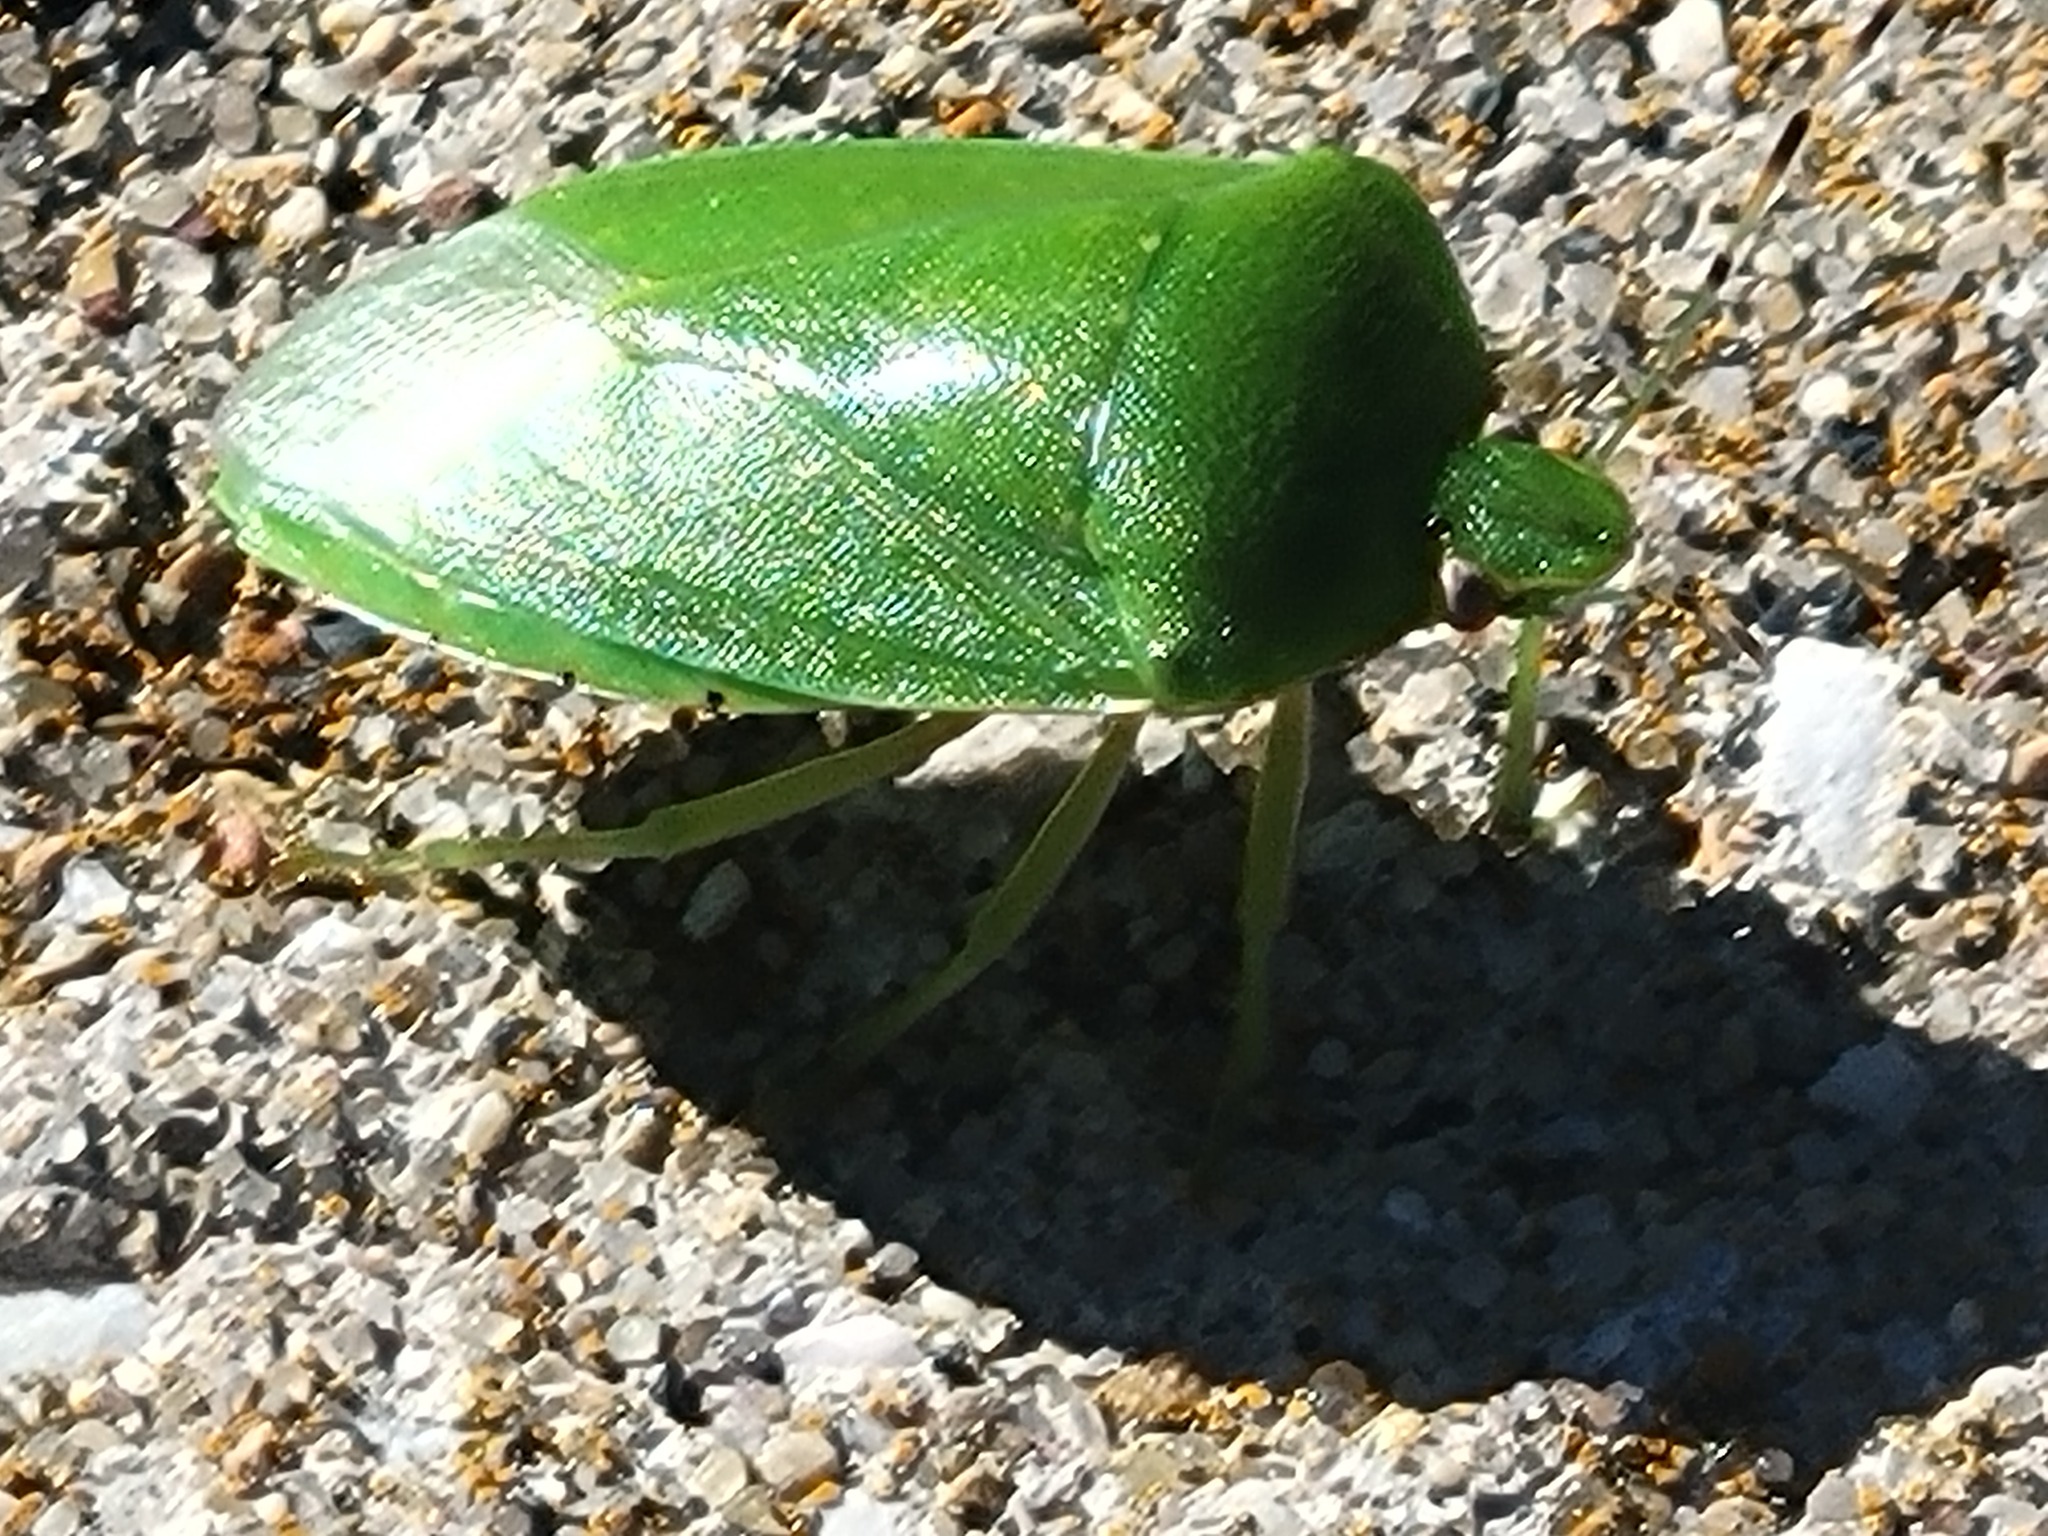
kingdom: Animalia
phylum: Arthropoda
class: Insecta
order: Hemiptera
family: Pentatomidae
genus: Chinavia
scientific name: Chinavia hilaris
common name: Green stink bug
